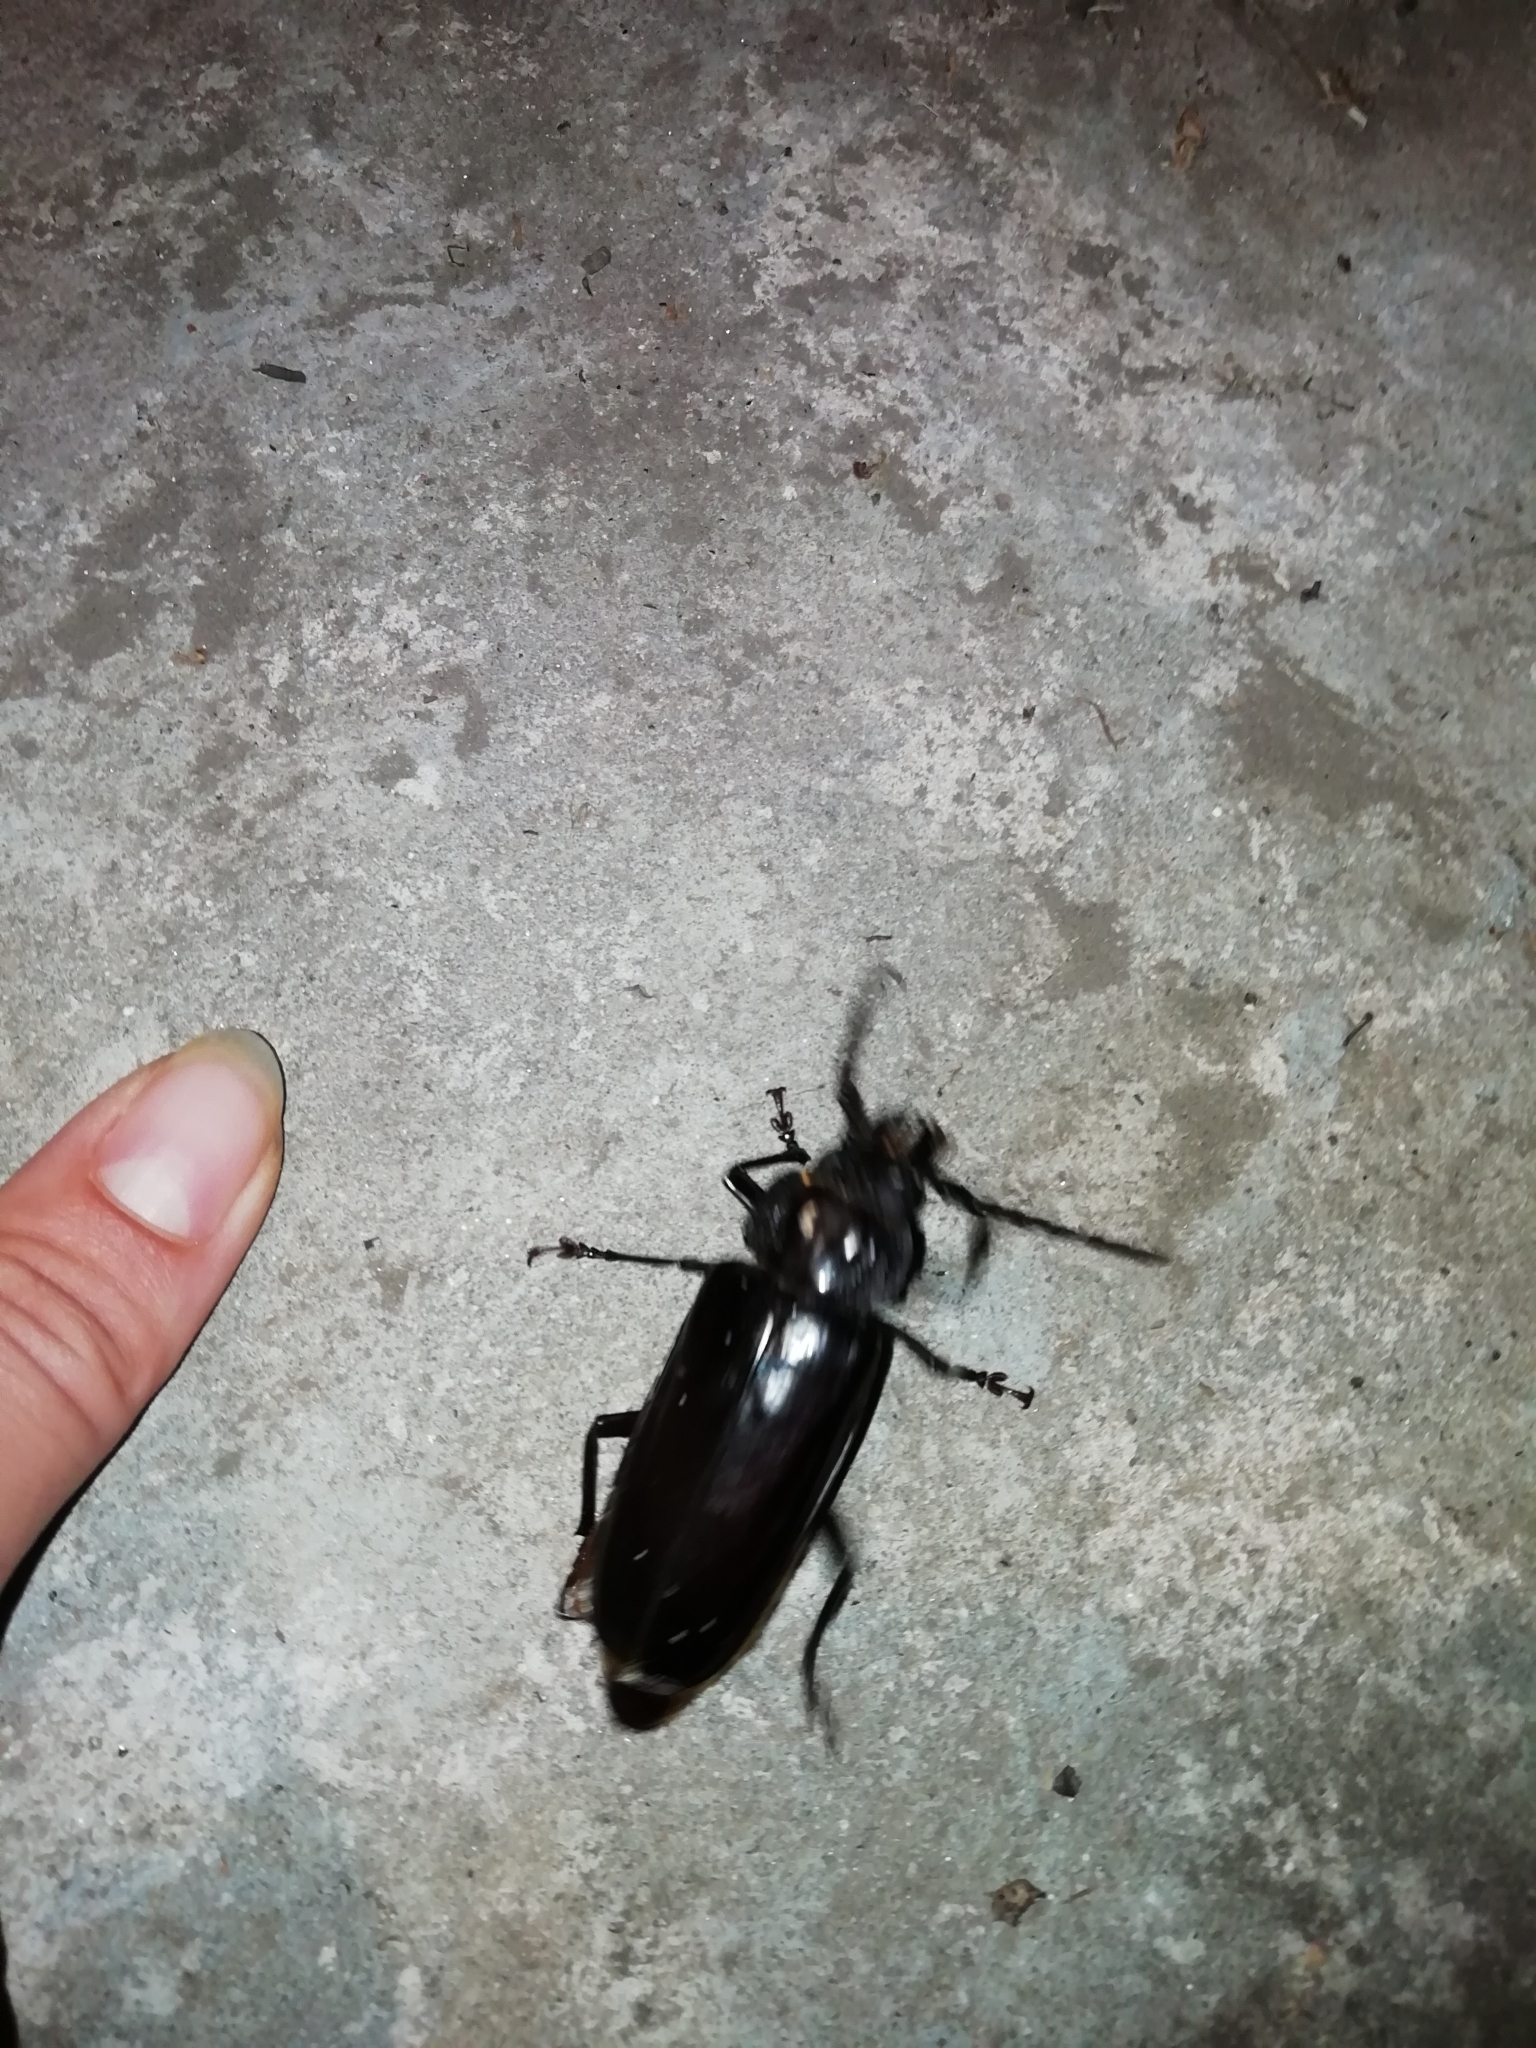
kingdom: Animalia
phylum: Arthropoda
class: Insecta
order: Coleoptera
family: Cerambycidae
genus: Mallodon
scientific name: Mallodon dasystomum
